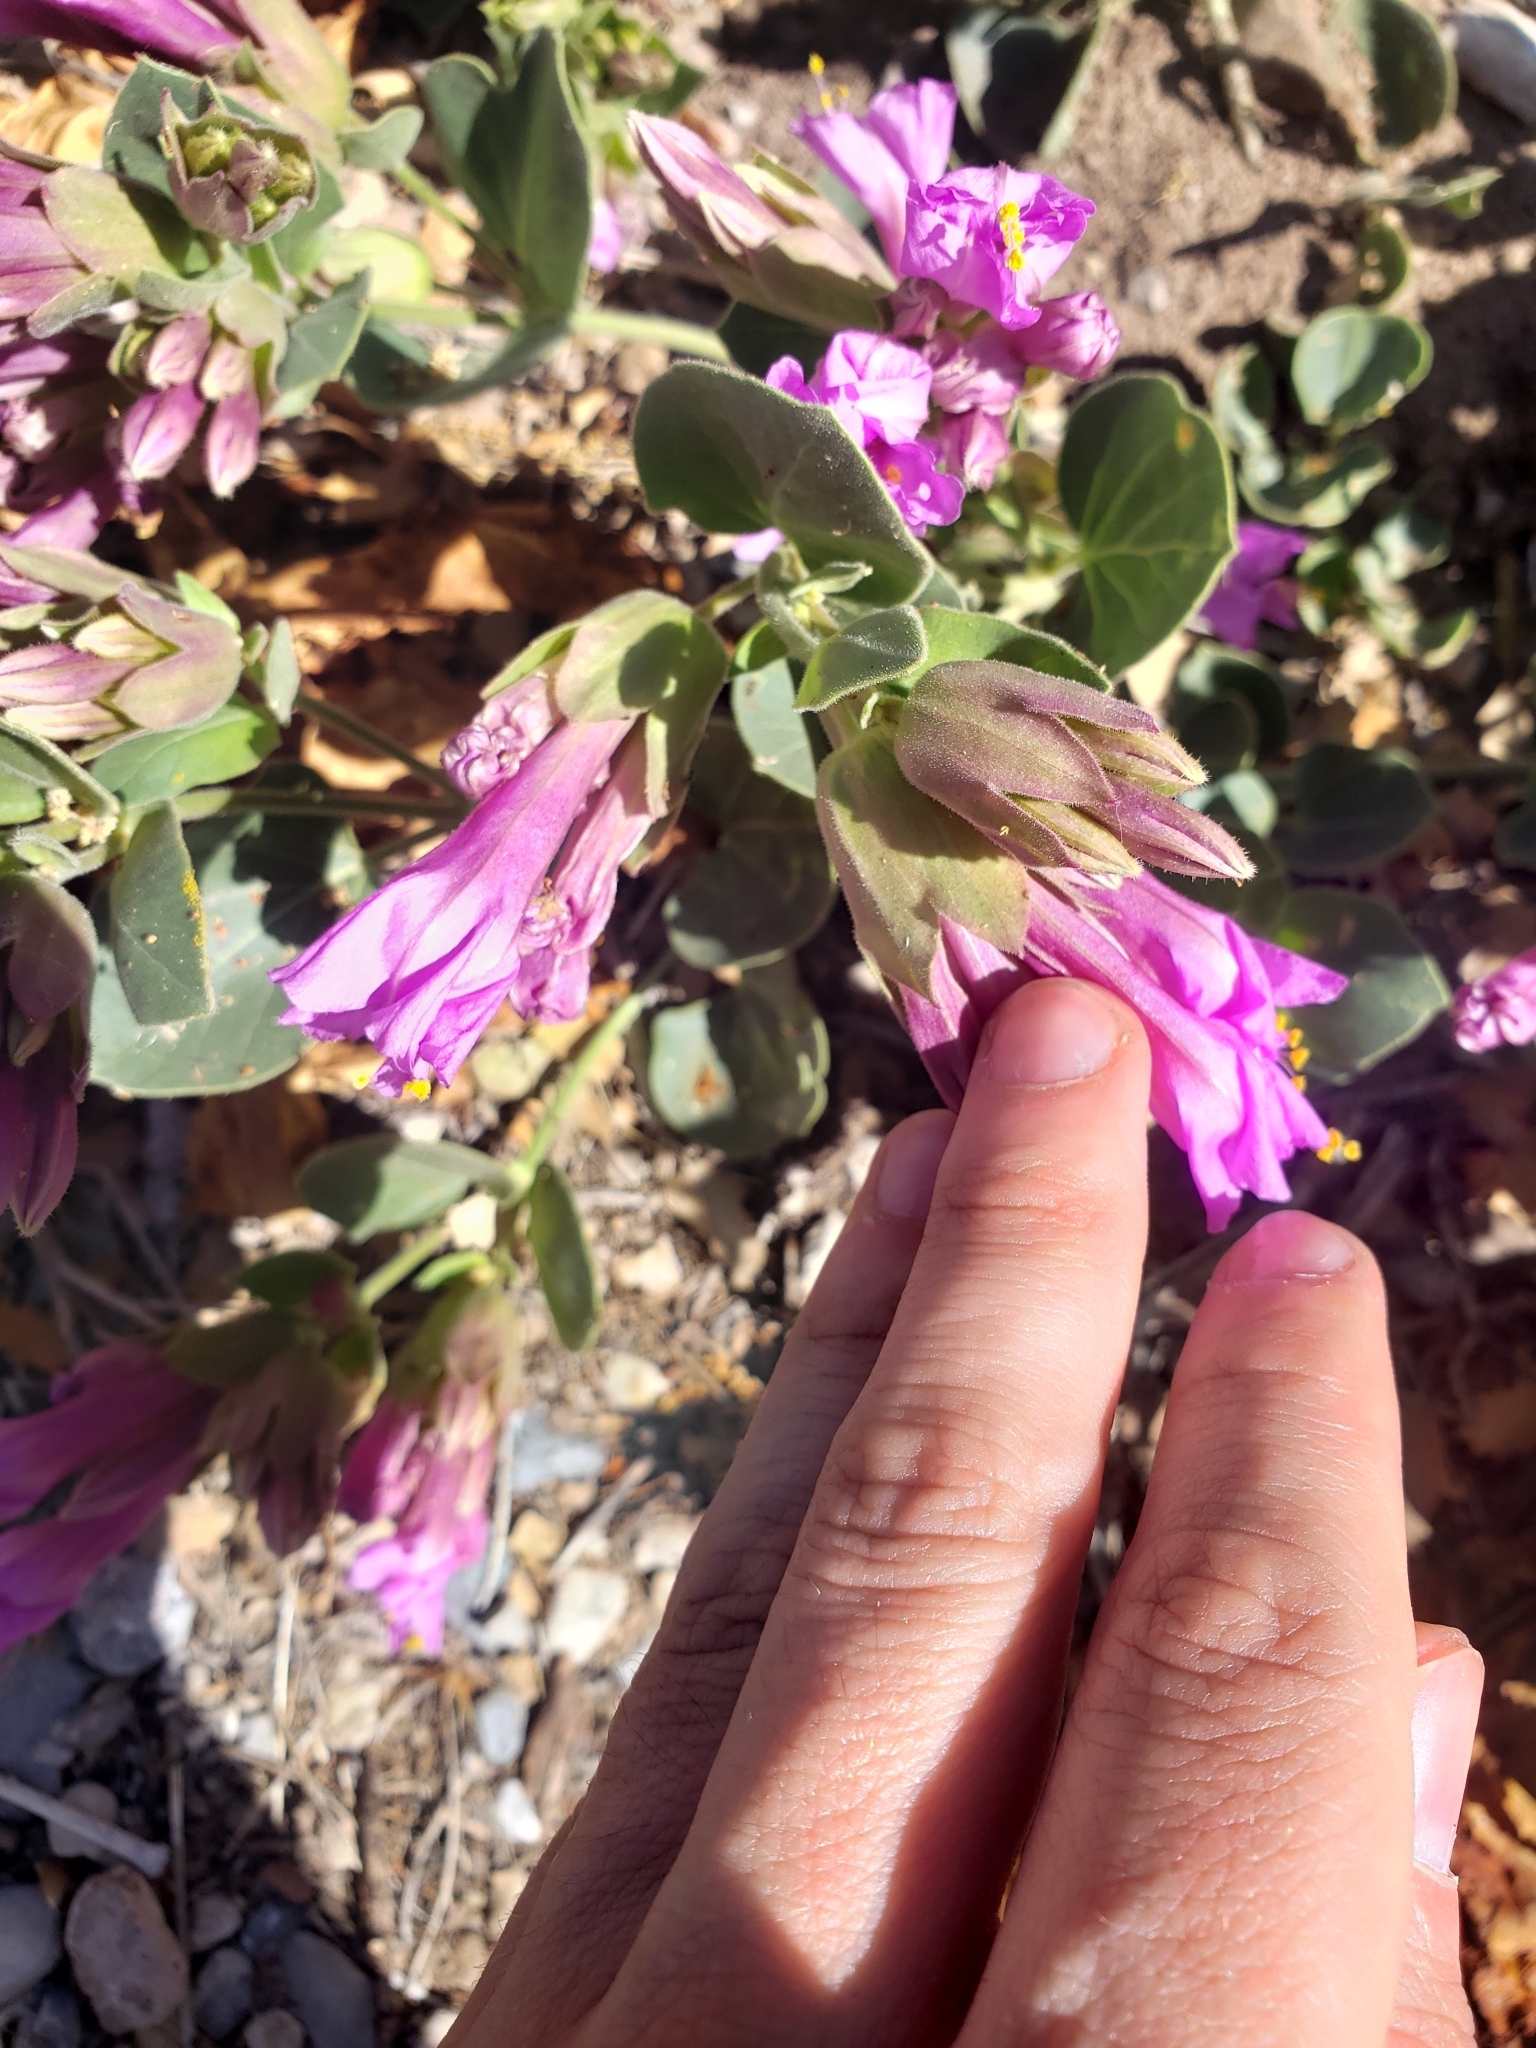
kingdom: Plantae
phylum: Tracheophyta
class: Magnoliopsida
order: Caryophyllales
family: Nyctaginaceae
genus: Mirabilis
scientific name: Mirabilis multiflora
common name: Froebel's four-o'clock
